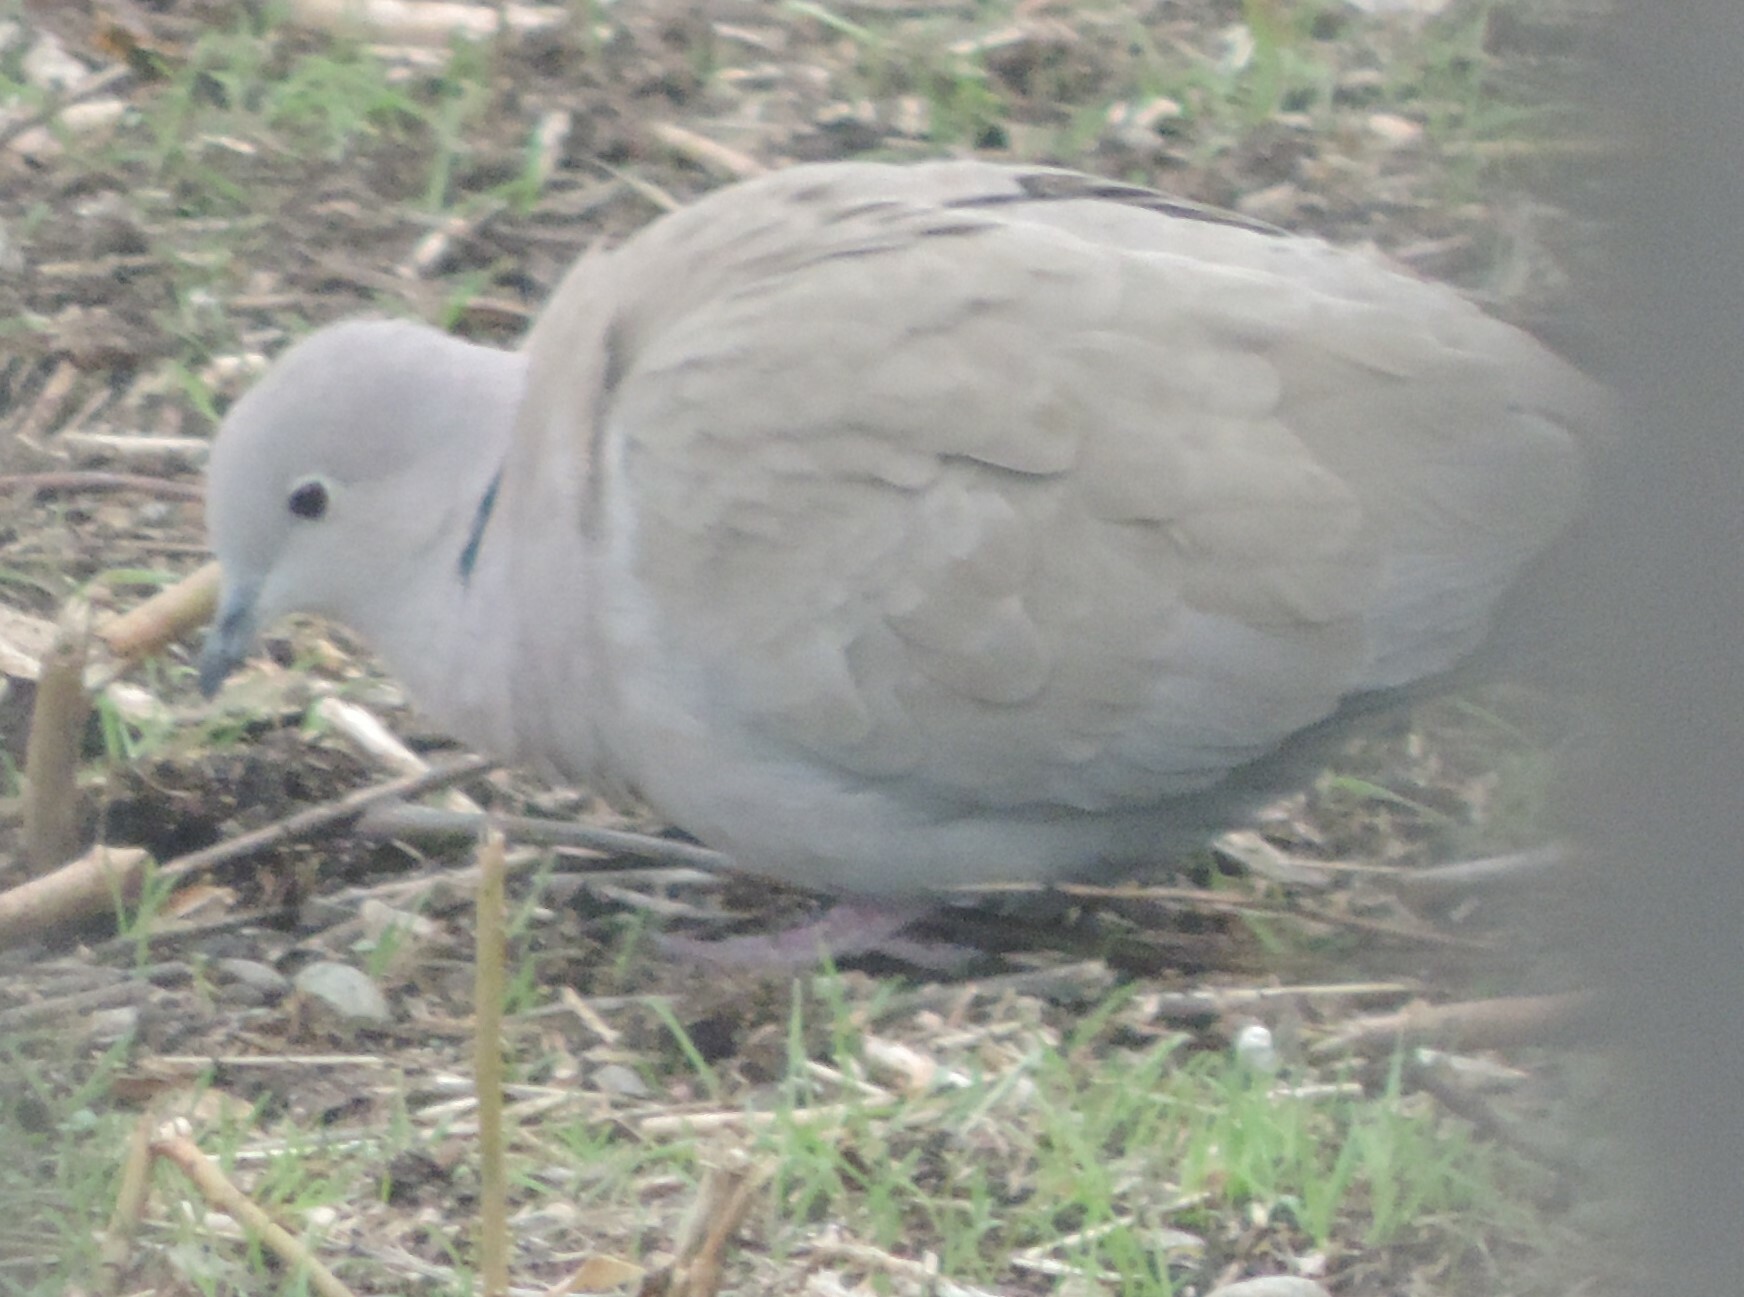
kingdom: Animalia
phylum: Chordata
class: Aves
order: Columbiformes
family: Columbidae
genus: Streptopelia
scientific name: Streptopelia decaocto
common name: Eurasian collared dove
